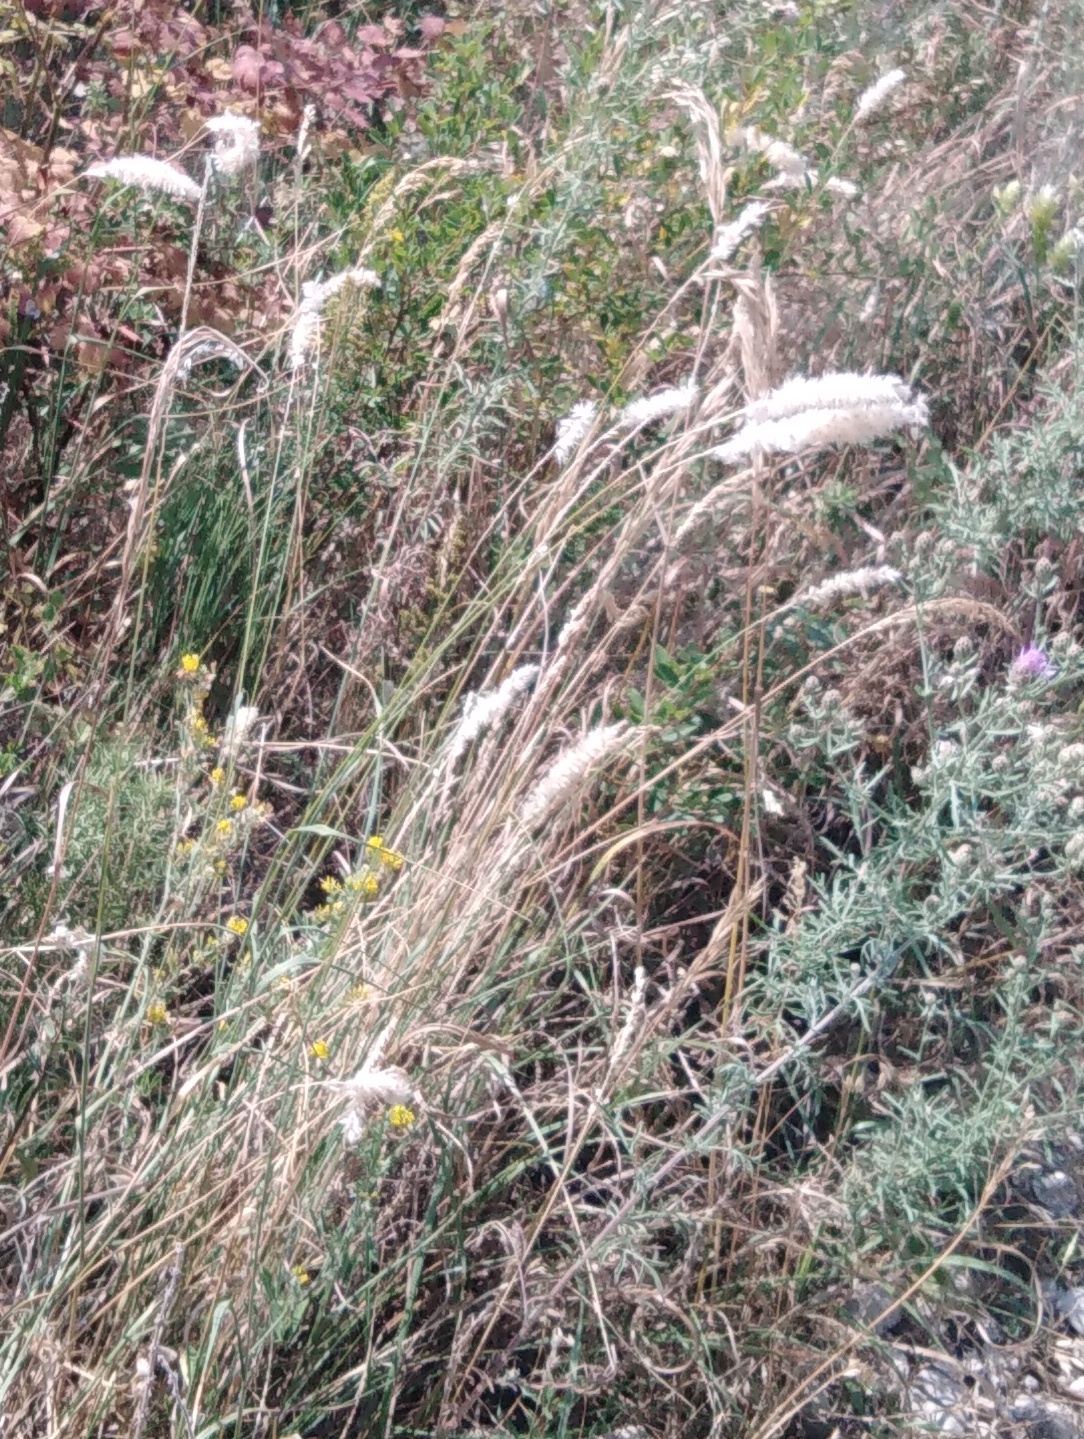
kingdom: Plantae
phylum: Tracheophyta
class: Liliopsida
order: Poales
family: Poaceae
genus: Melica
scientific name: Melica transsilvanica
